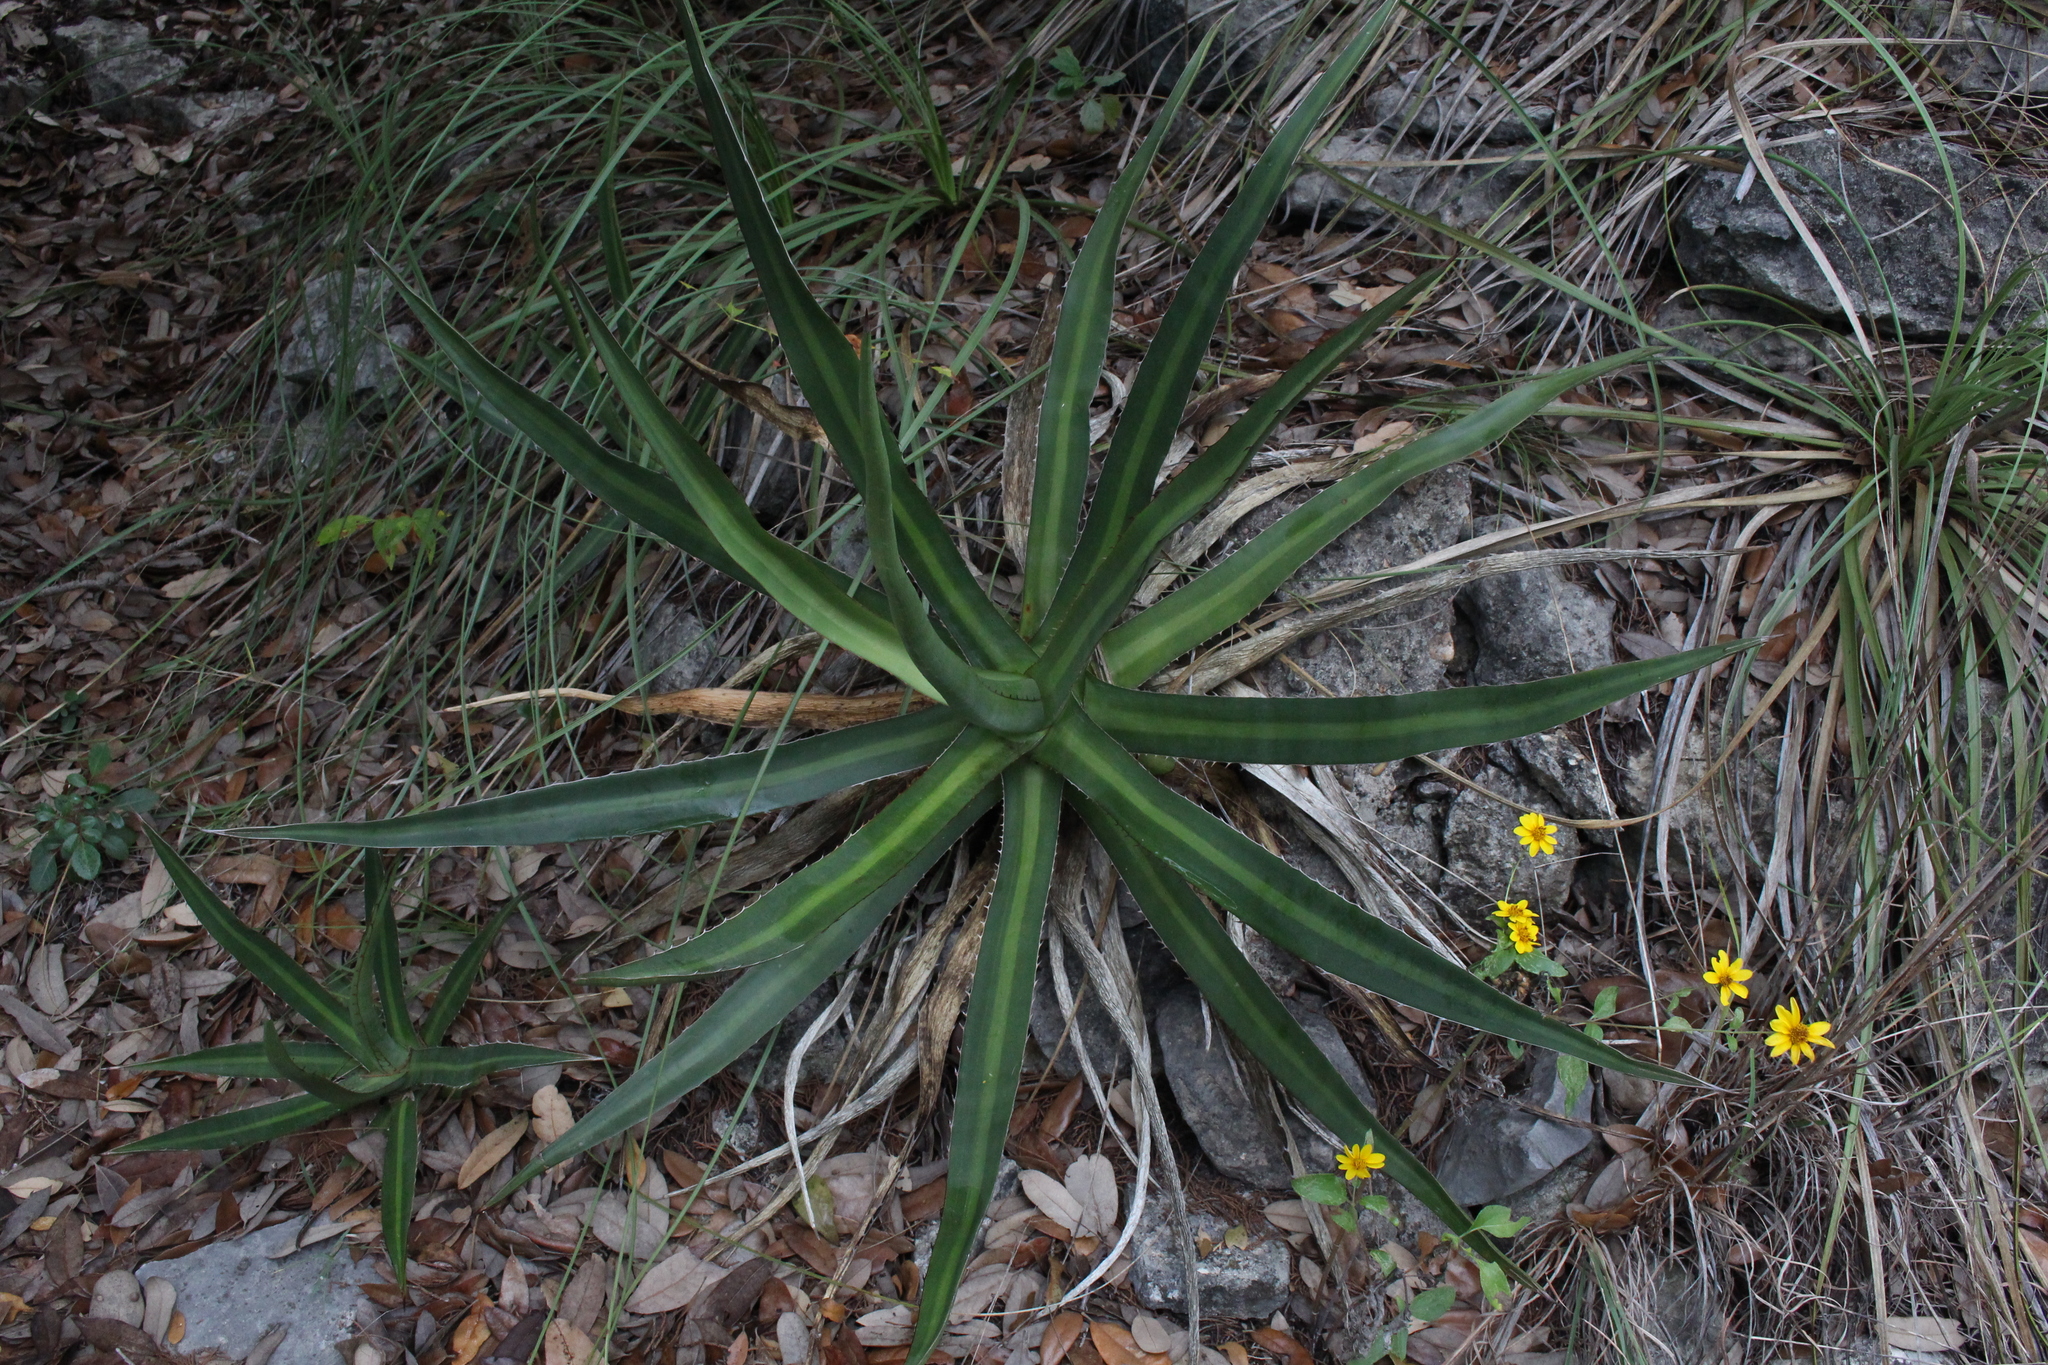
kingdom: Plantae
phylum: Tracheophyta
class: Liliopsida
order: Asparagales
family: Asparagaceae
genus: Agave
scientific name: Agave univittata
